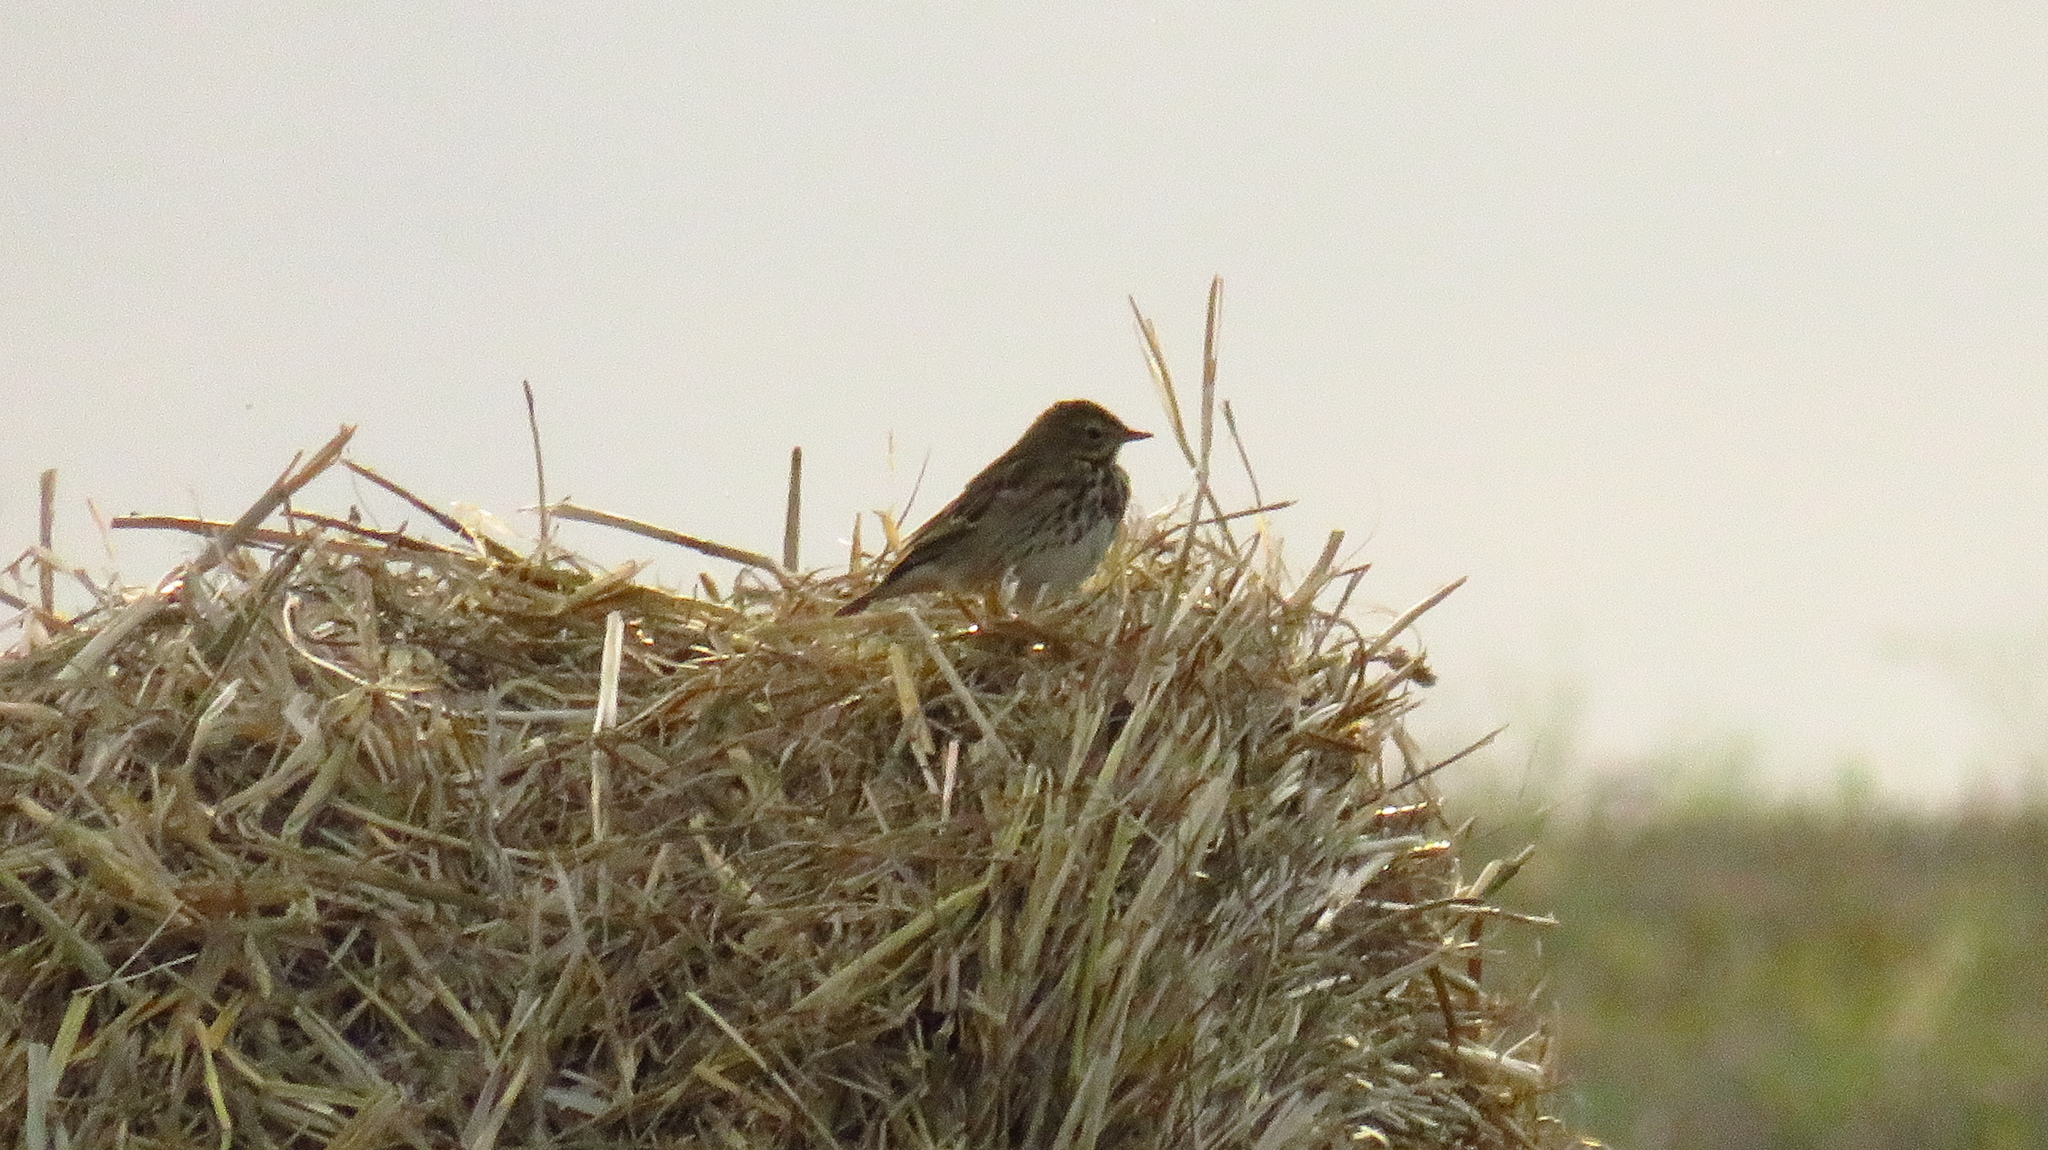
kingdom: Animalia
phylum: Chordata
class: Aves
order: Passeriformes
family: Motacillidae
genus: Anthus
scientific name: Anthus pratensis
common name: Meadow pipit
